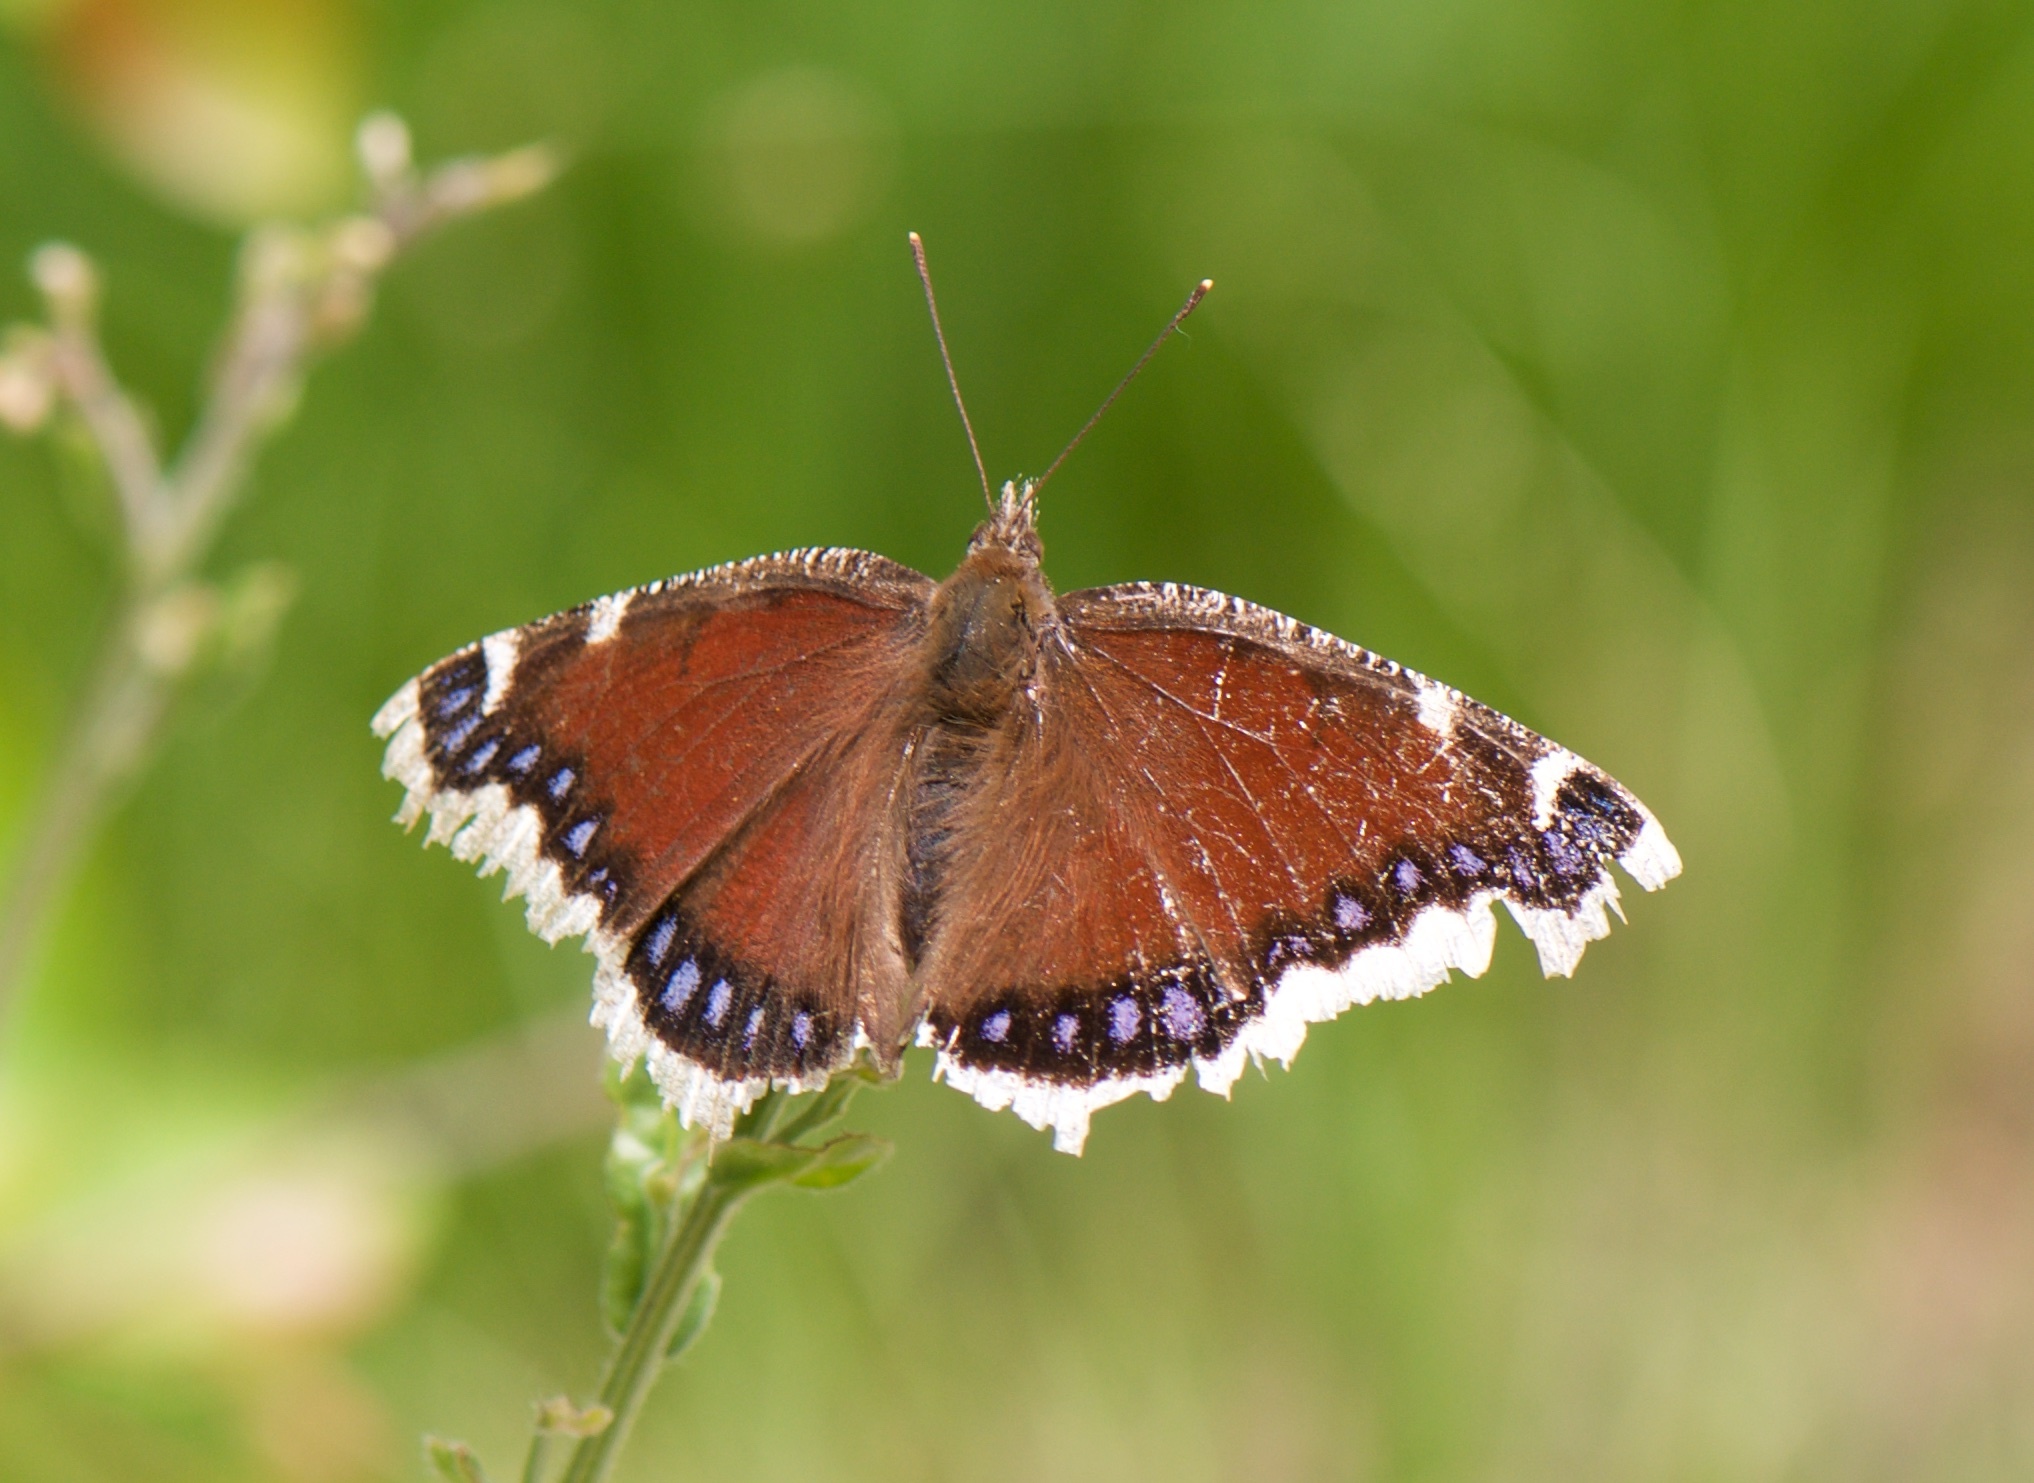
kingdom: Animalia
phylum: Arthropoda
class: Insecta
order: Lepidoptera
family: Nymphalidae
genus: Nymphalis
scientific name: Nymphalis antiopa
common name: Camberwell beauty
